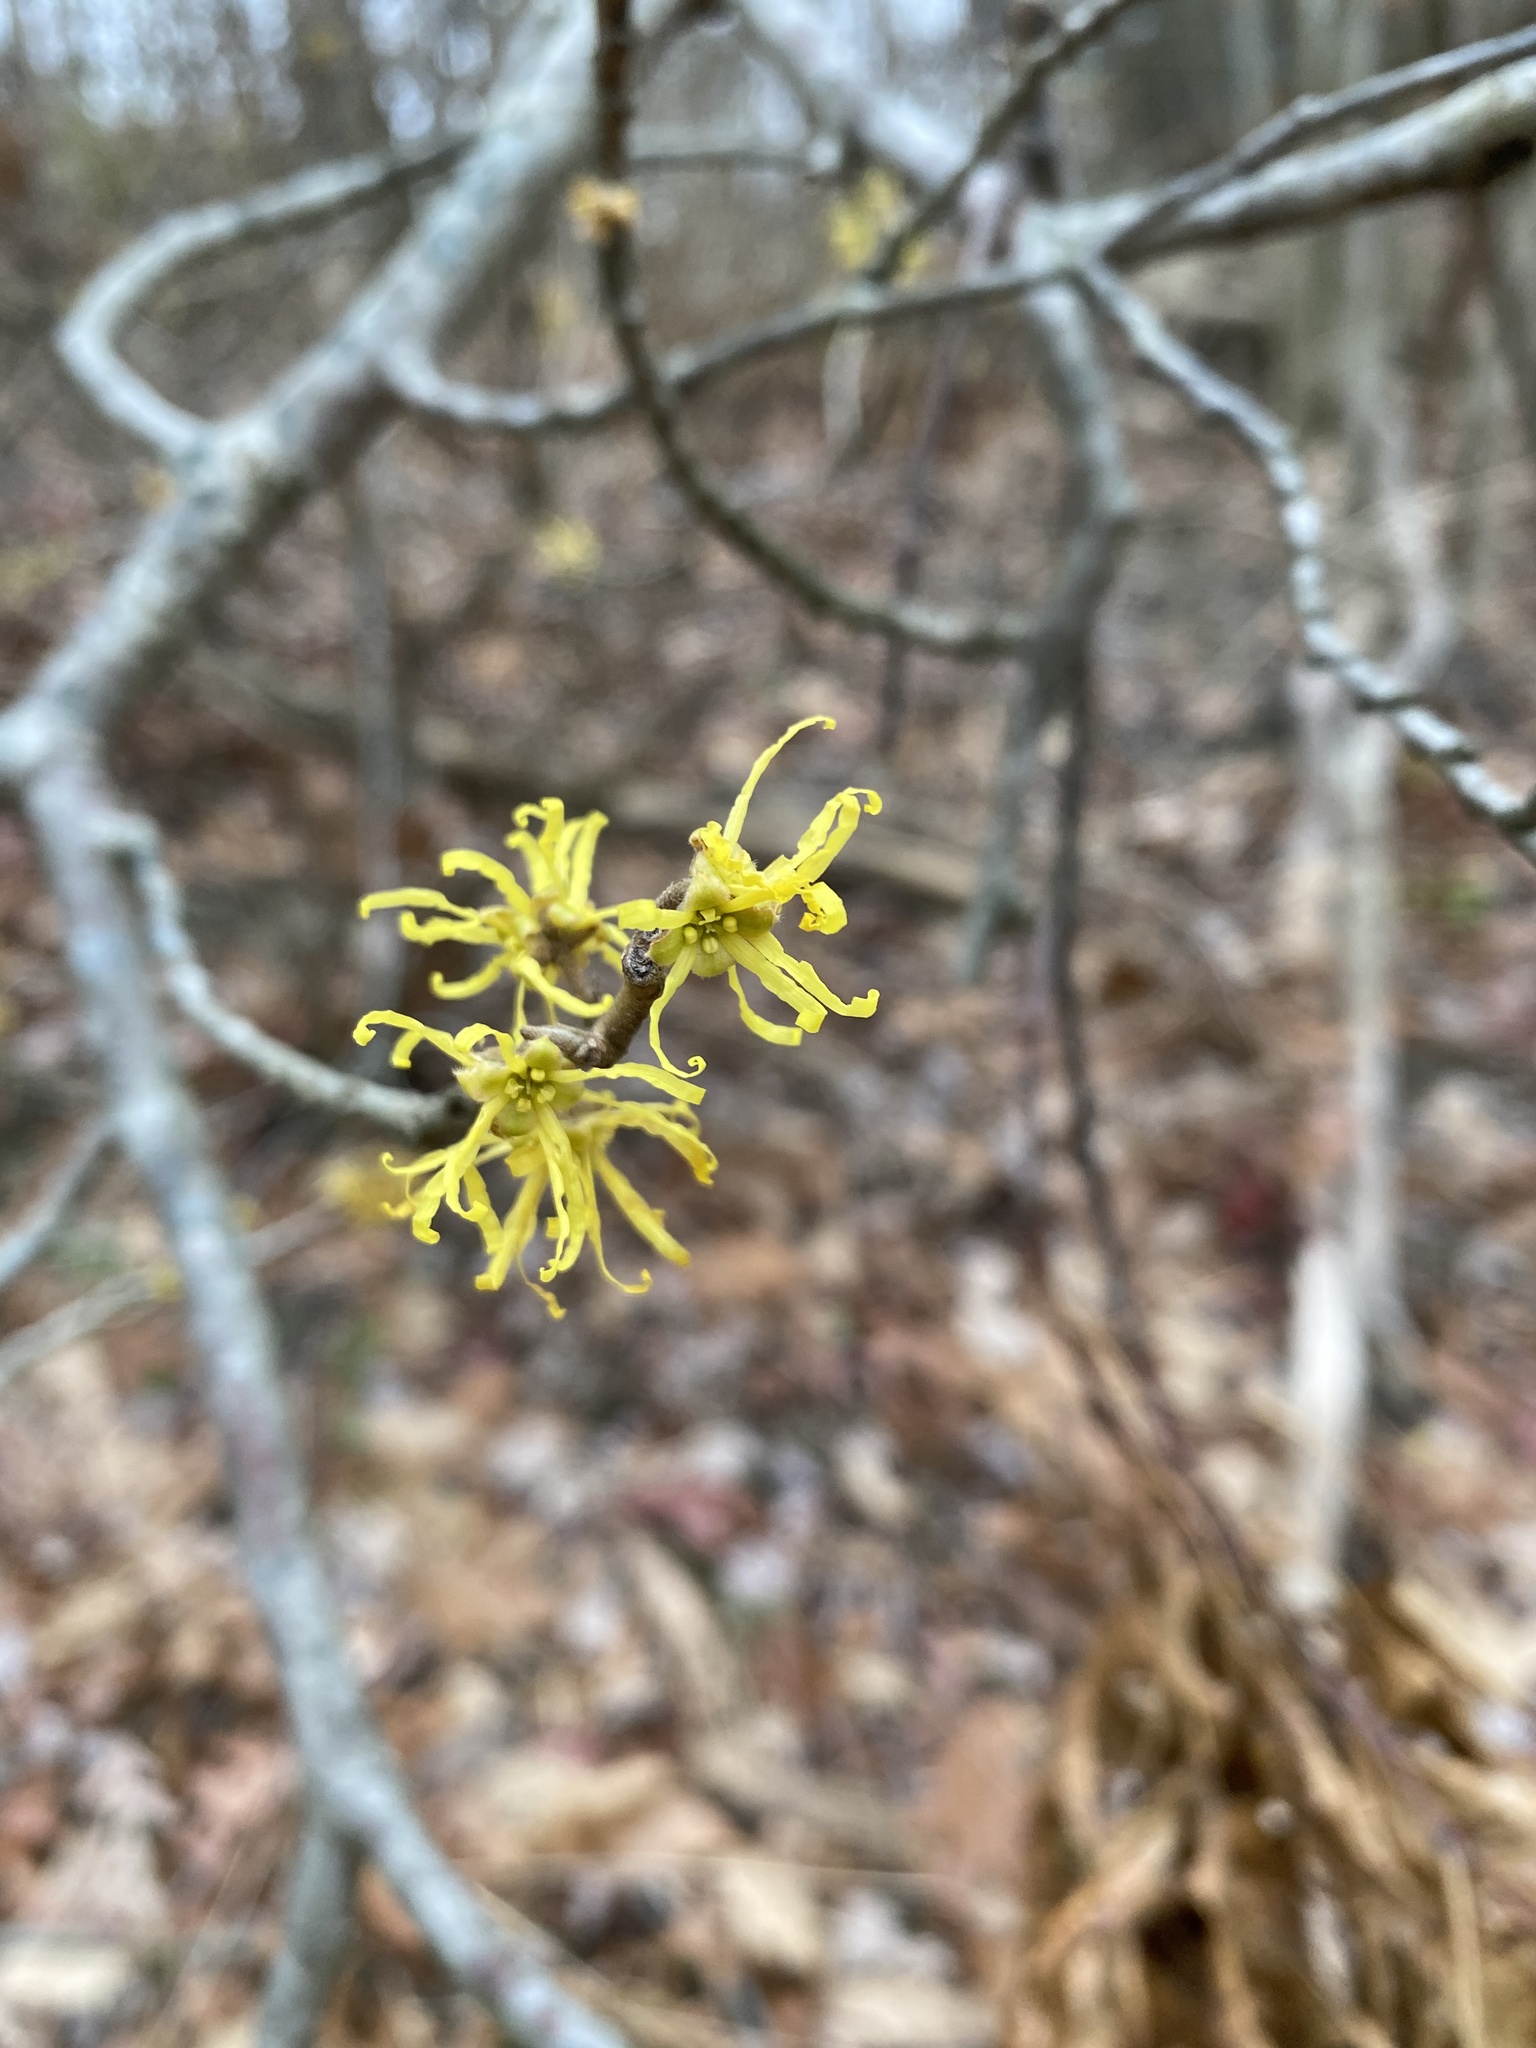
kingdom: Plantae
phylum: Tracheophyta
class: Magnoliopsida
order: Saxifragales
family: Hamamelidaceae
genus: Hamamelis
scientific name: Hamamelis virginiana
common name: Witch-hazel
